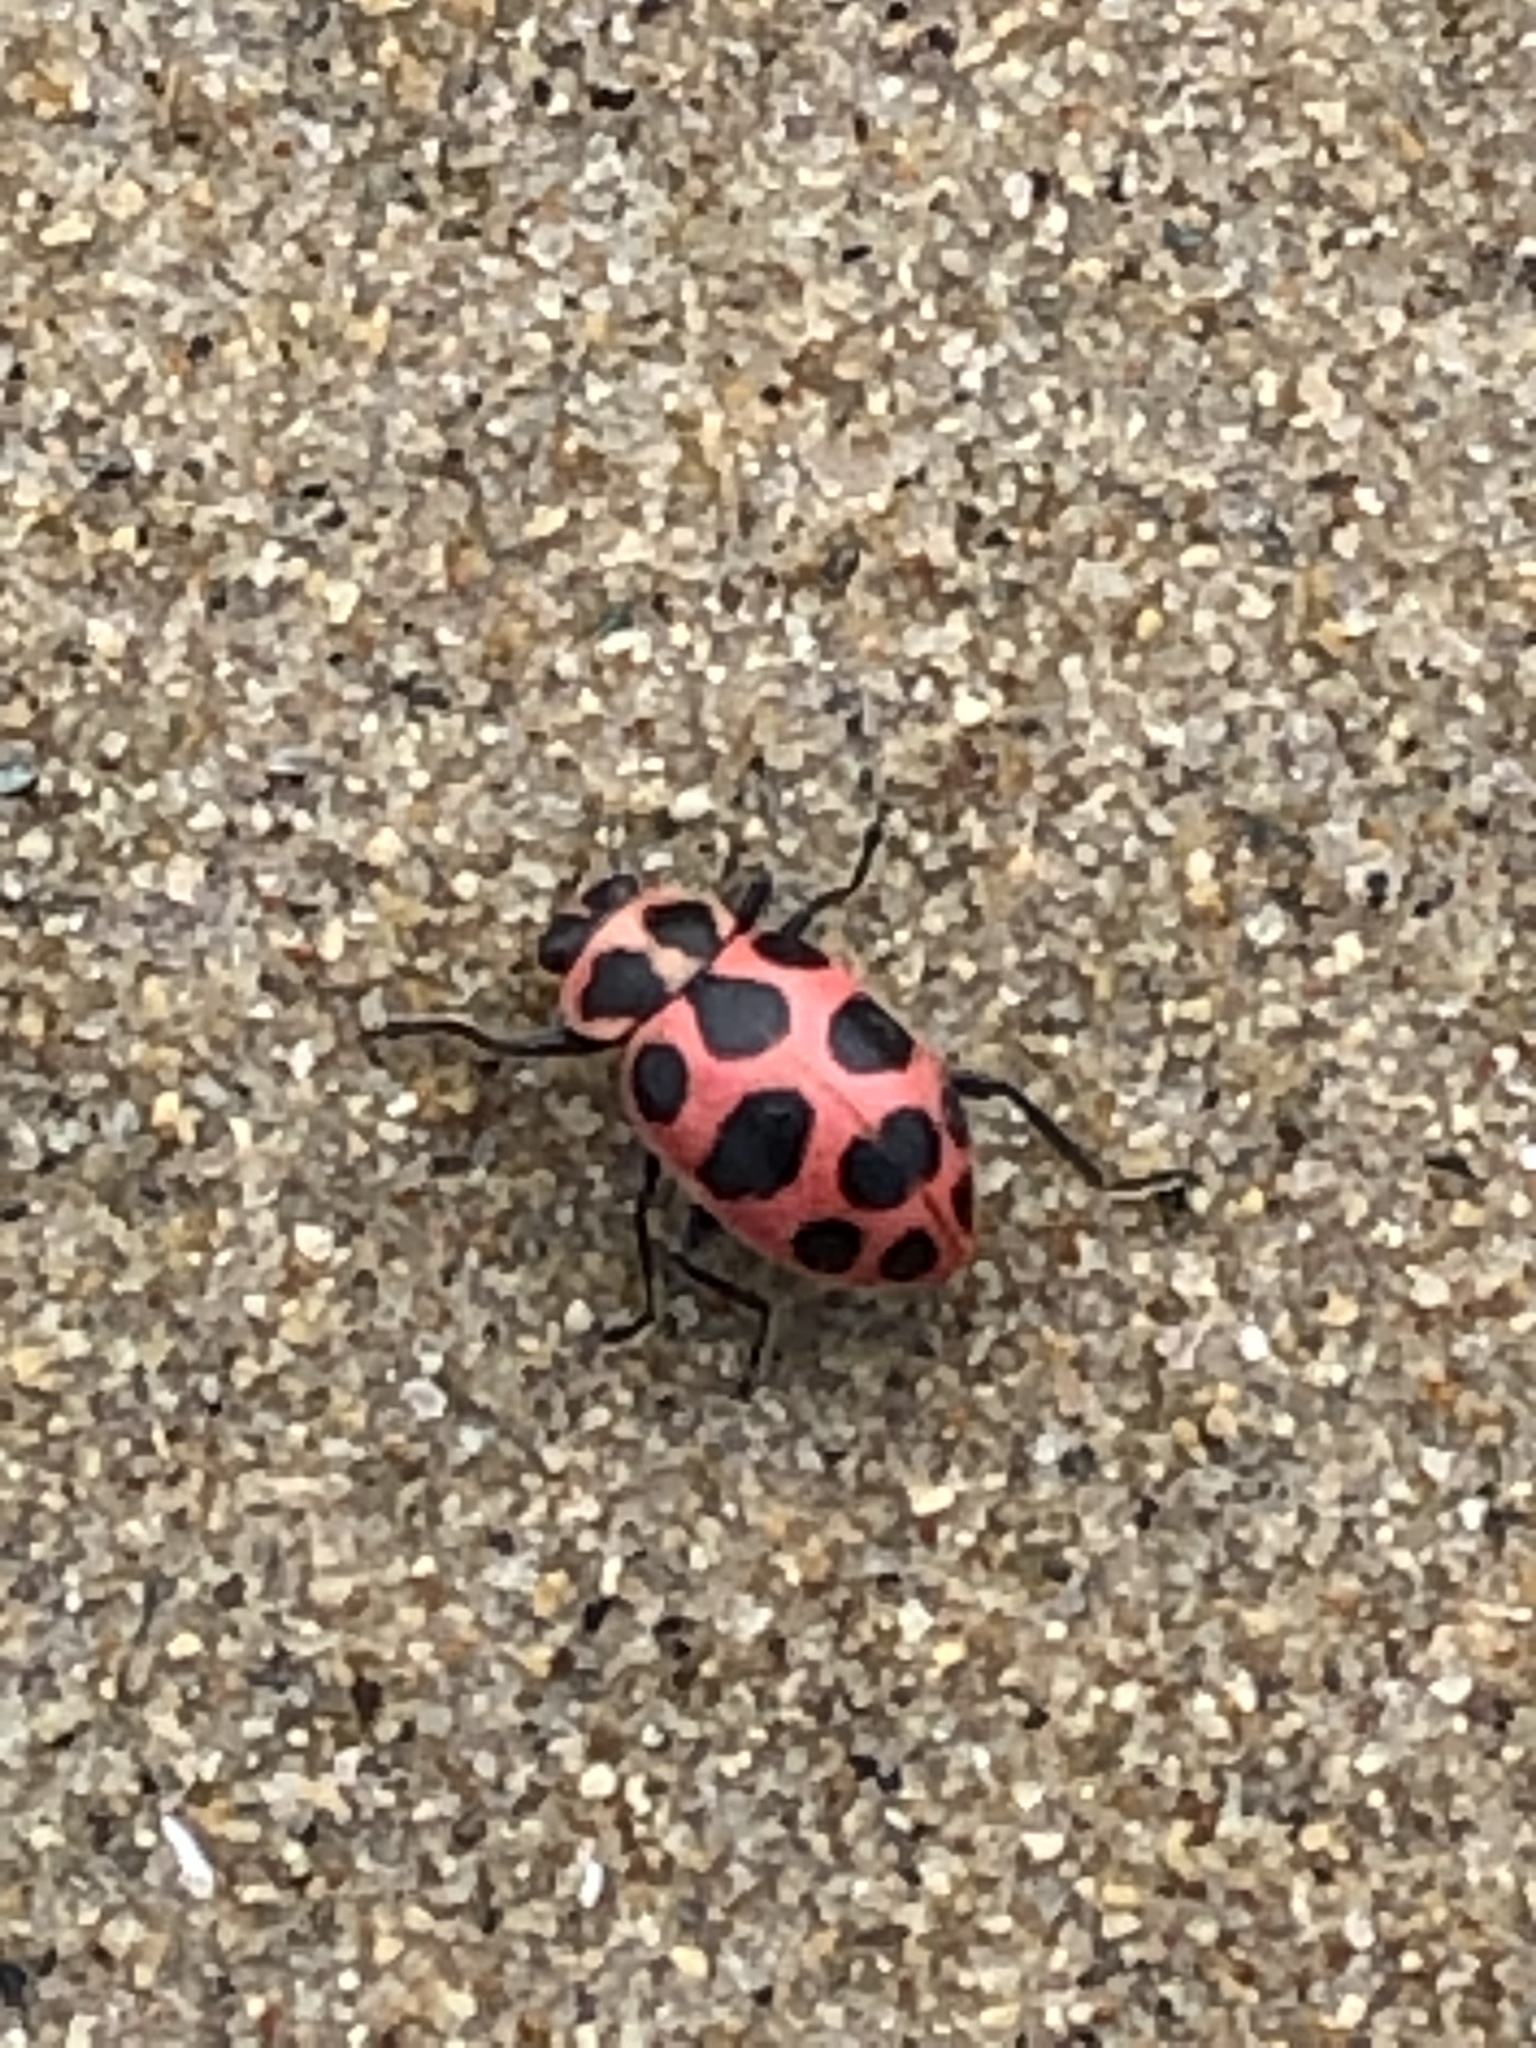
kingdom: Animalia
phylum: Arthropoda
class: Insecta
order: Coleoptera
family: Coccinellidae
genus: Coleomegilla
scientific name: Coleomegilla maculata
